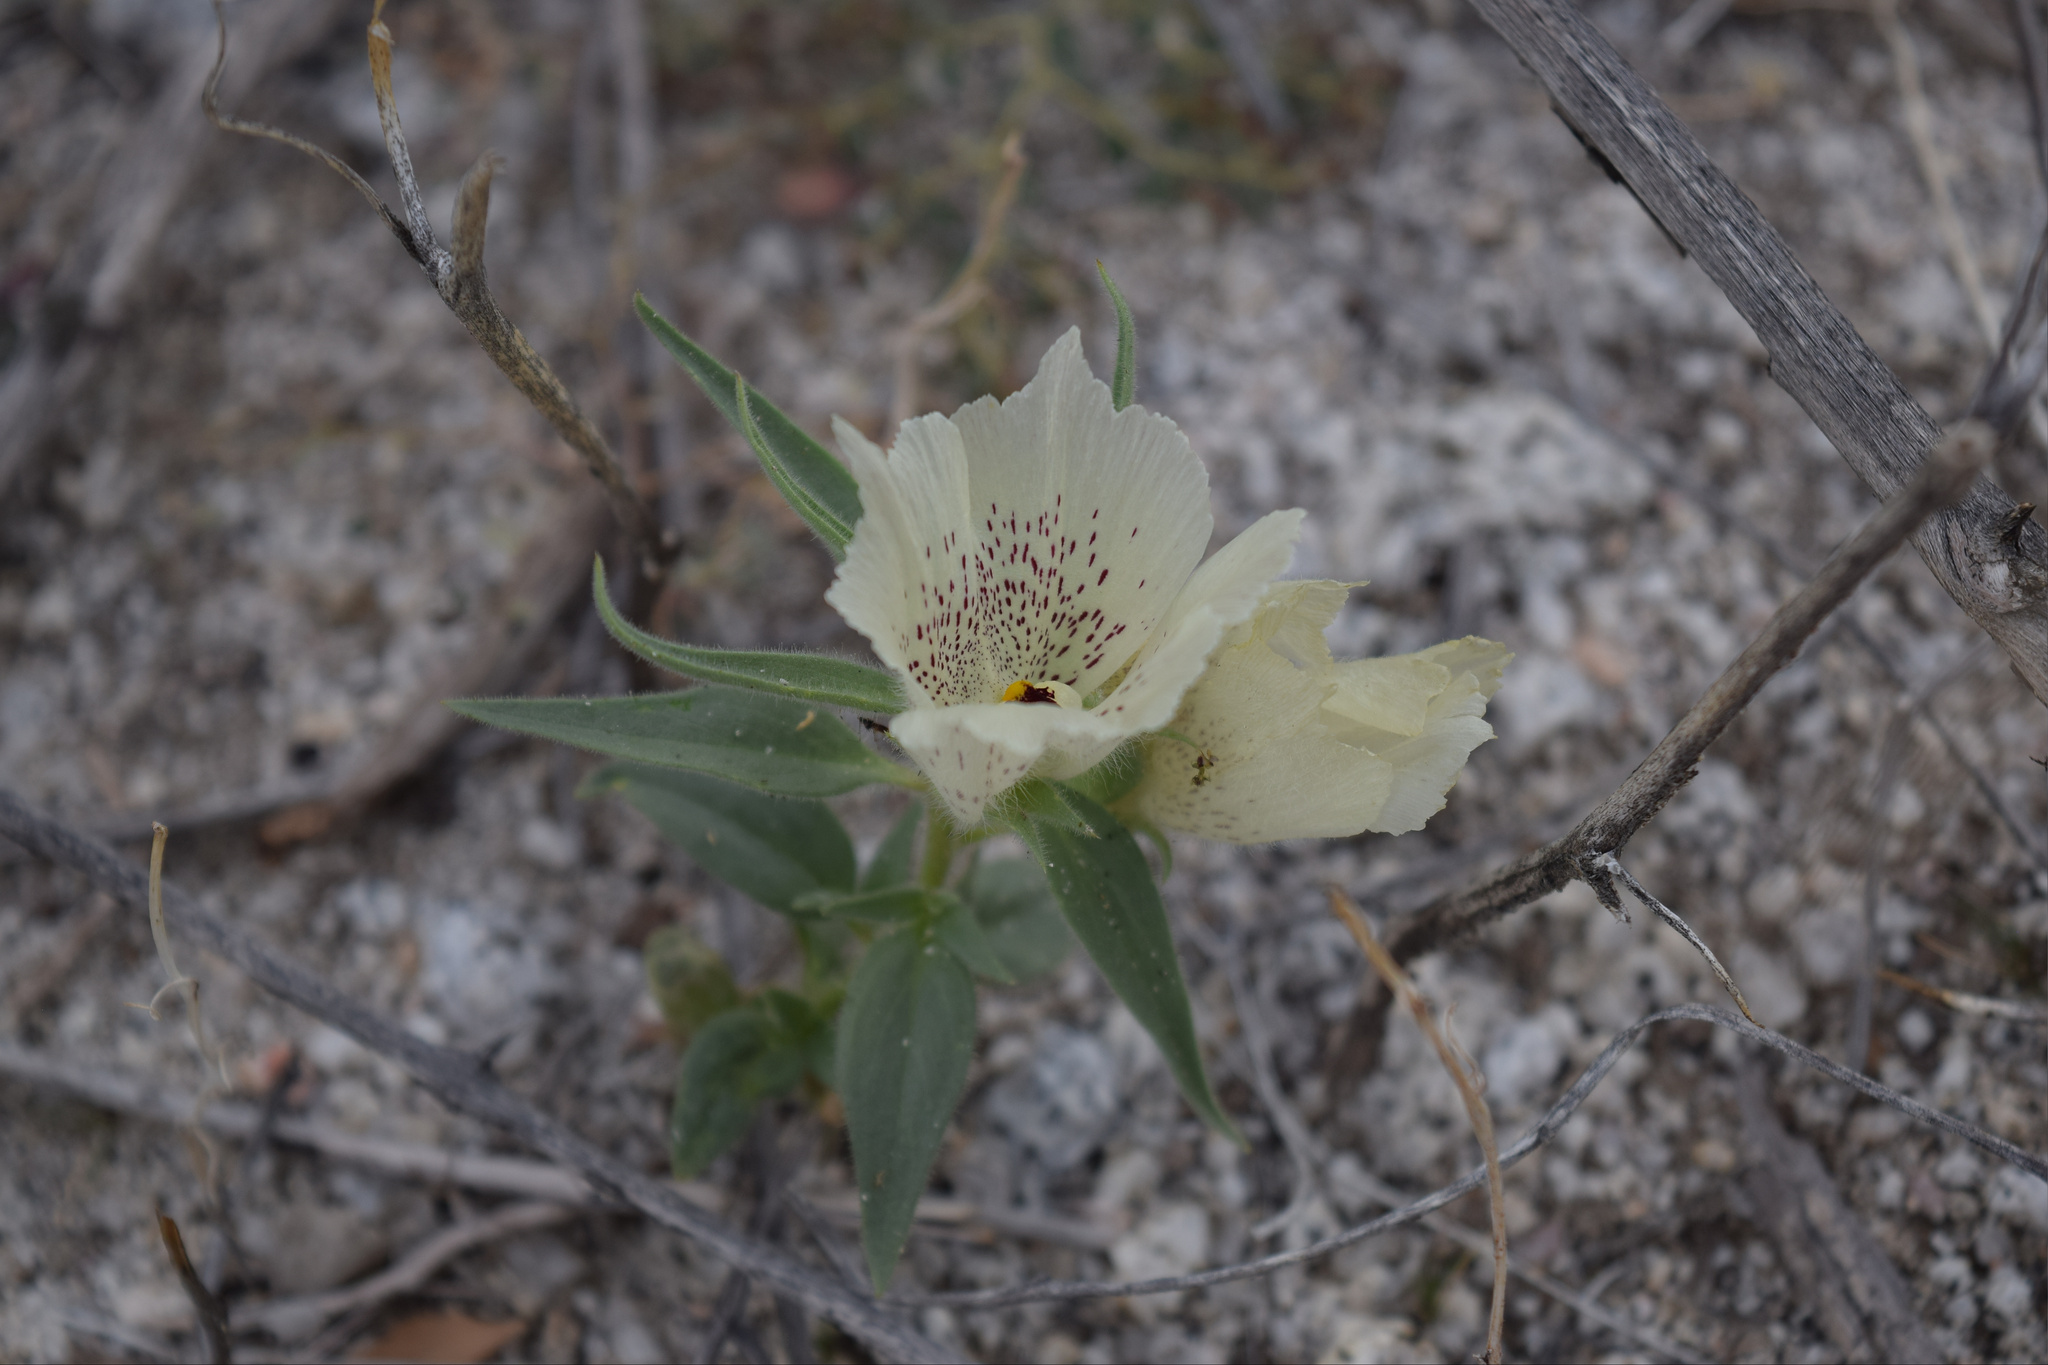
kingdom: Plantae
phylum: Tracheophyta
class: Magnoliopsida
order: Lamiales
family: Plantaginaceae
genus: Mohavea
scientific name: Mohavea confertiflora
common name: Ghost flower
